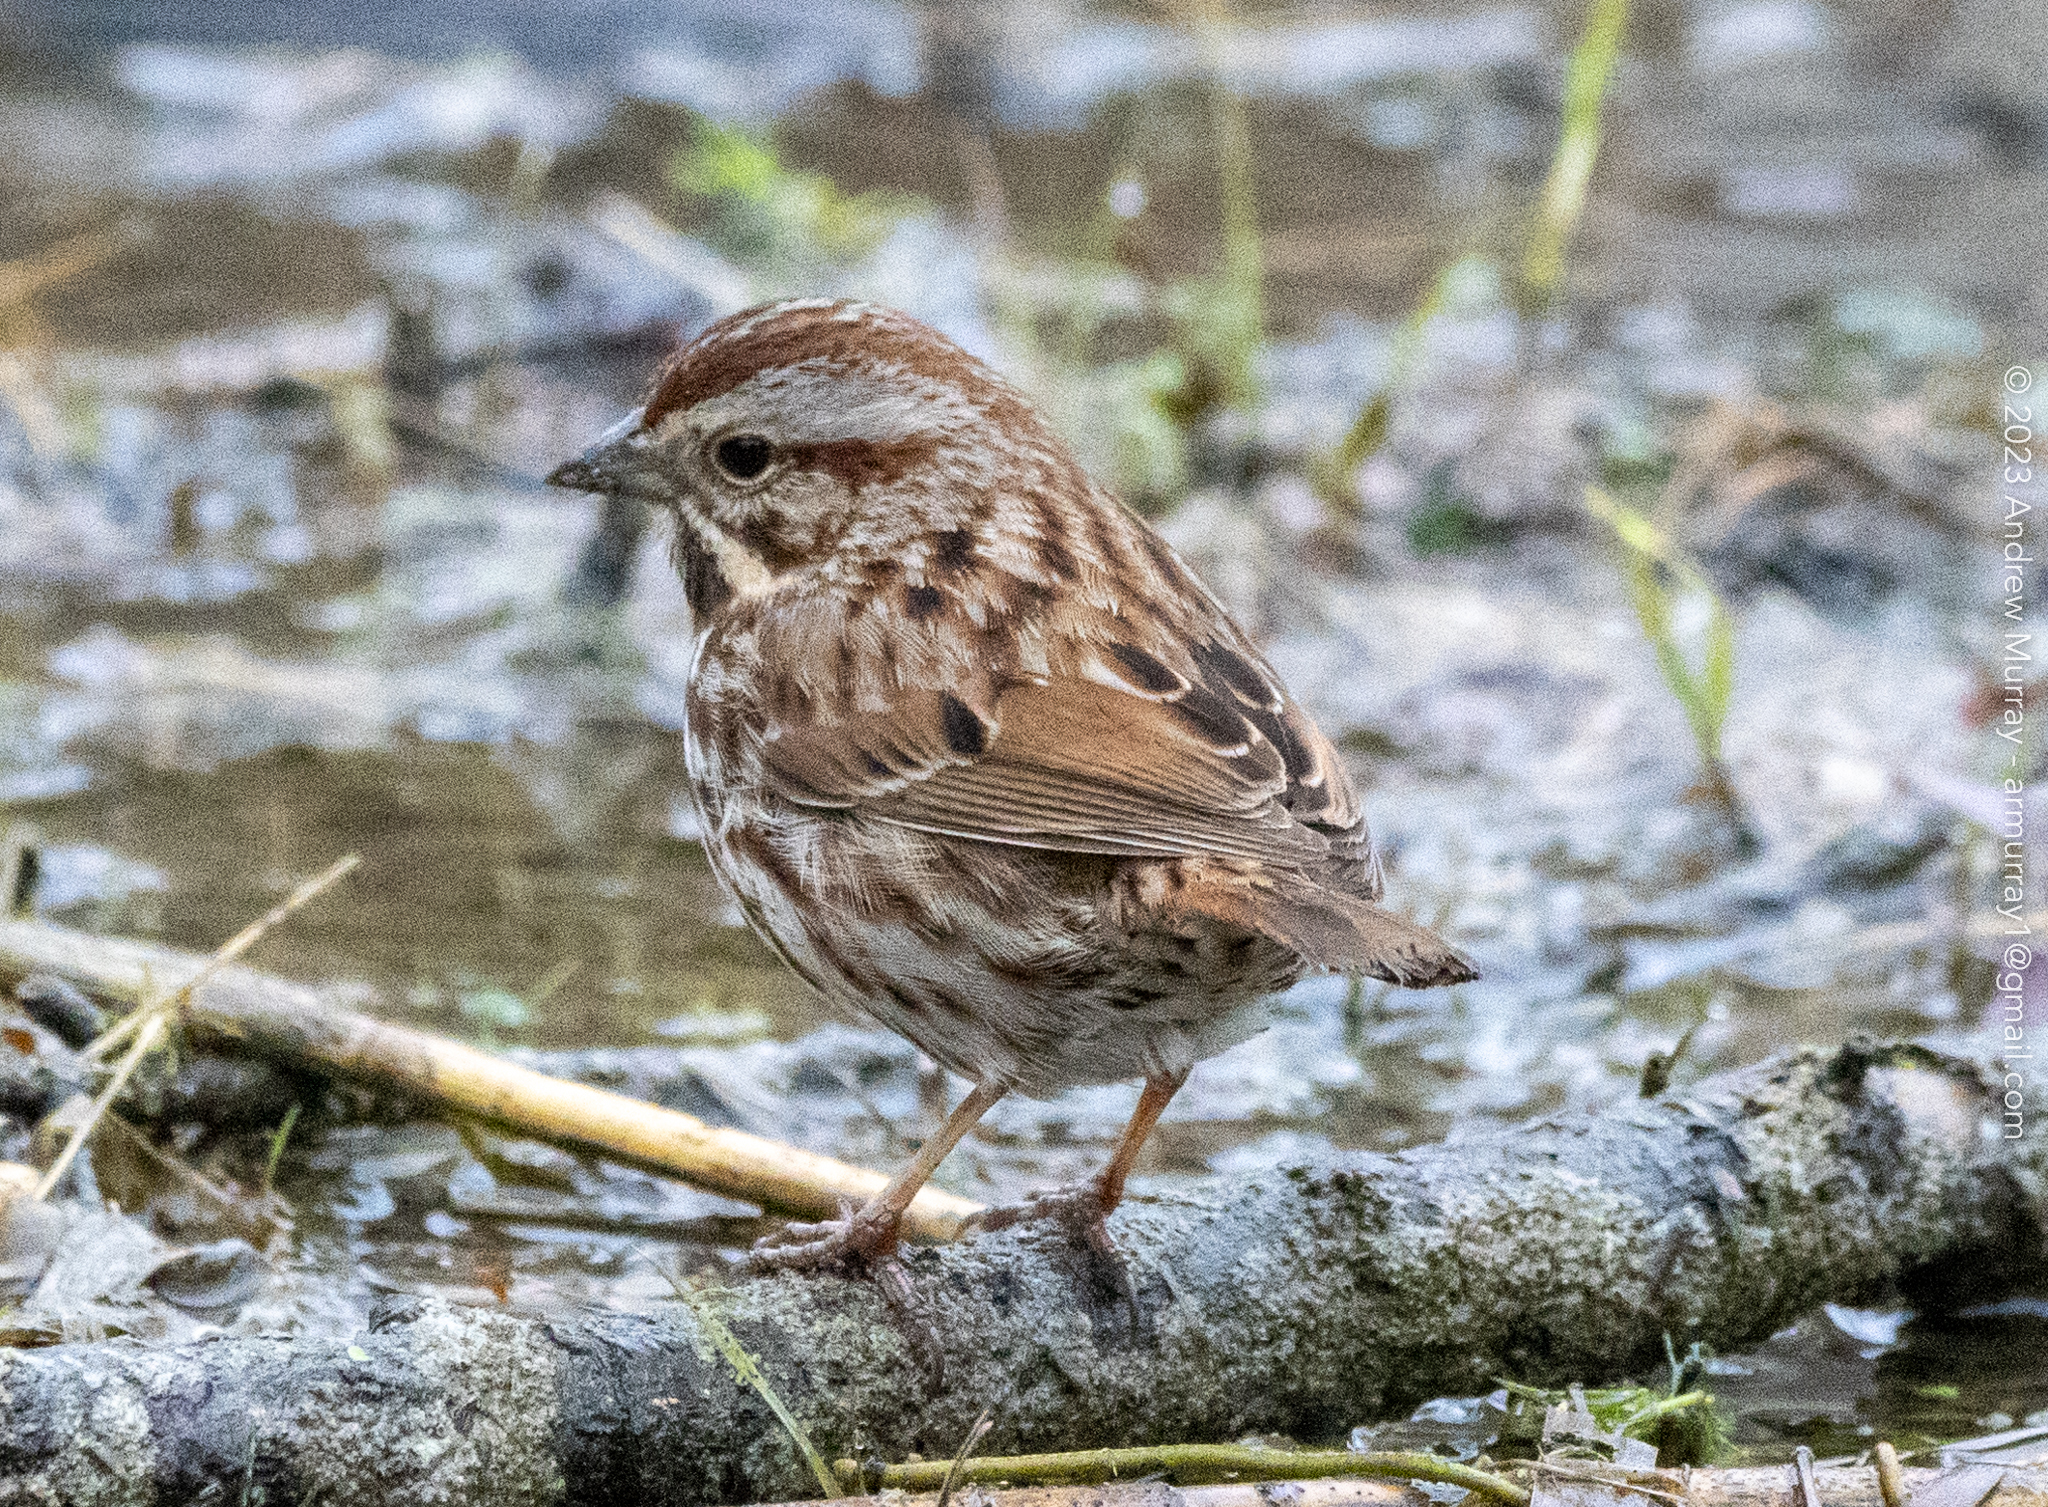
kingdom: Animalia
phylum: Chordata
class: Aves
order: Passeriformes
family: Passerellidae
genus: Melospiza
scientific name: Melospiza melodia
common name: Song sparrow
